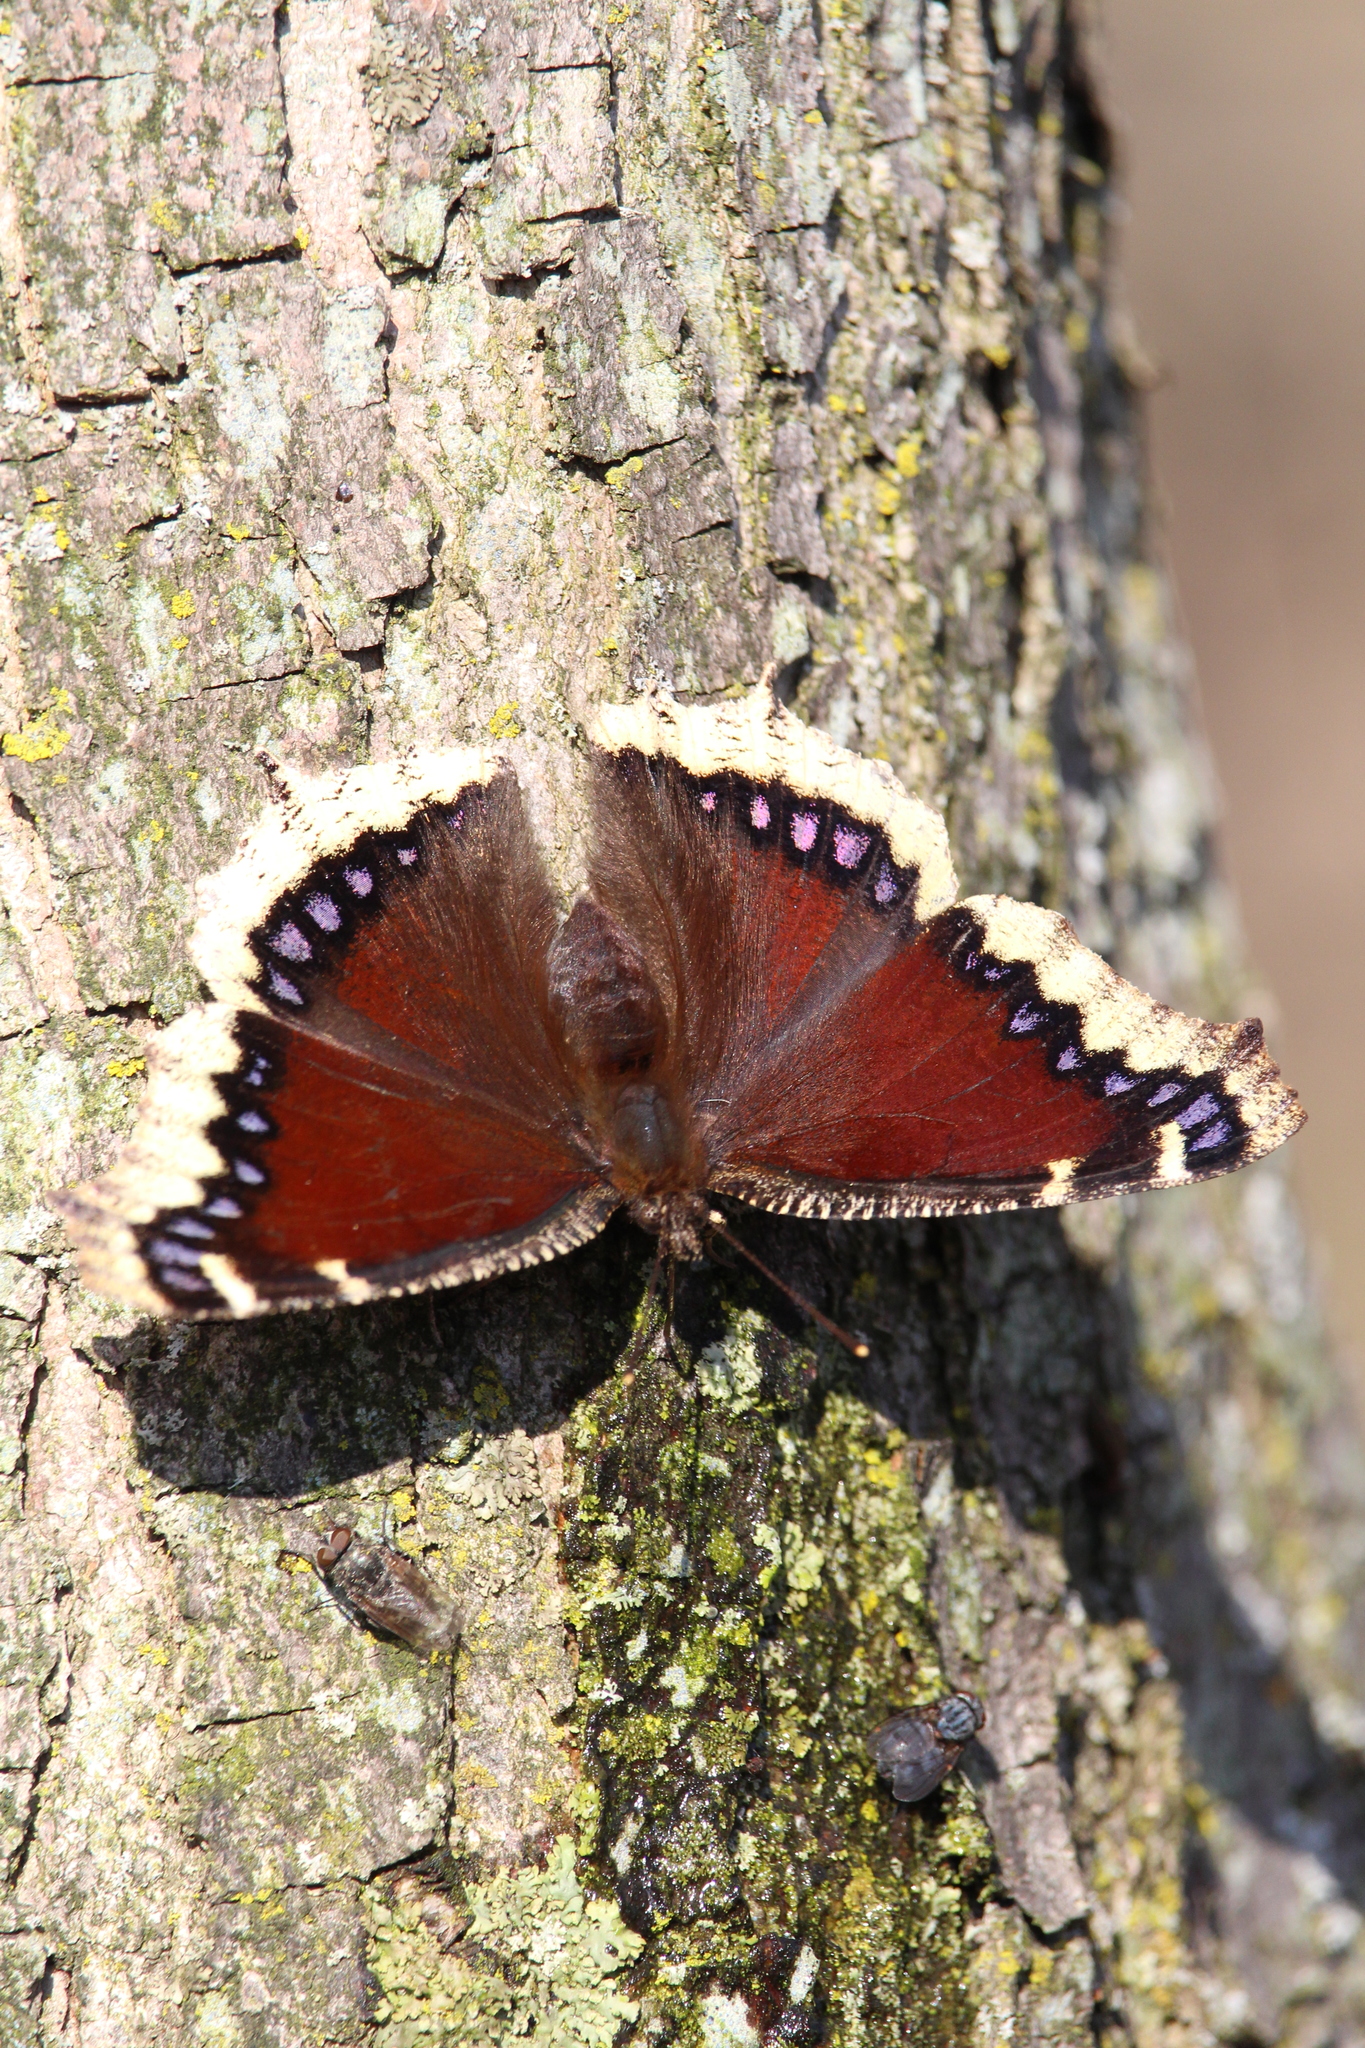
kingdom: Animalia
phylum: Arthropoda
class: Insecta
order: Lepidoptera
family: Nymphalidae
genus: Nymphalis
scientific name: Nymphalis antiopa
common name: Camberwell beauty
